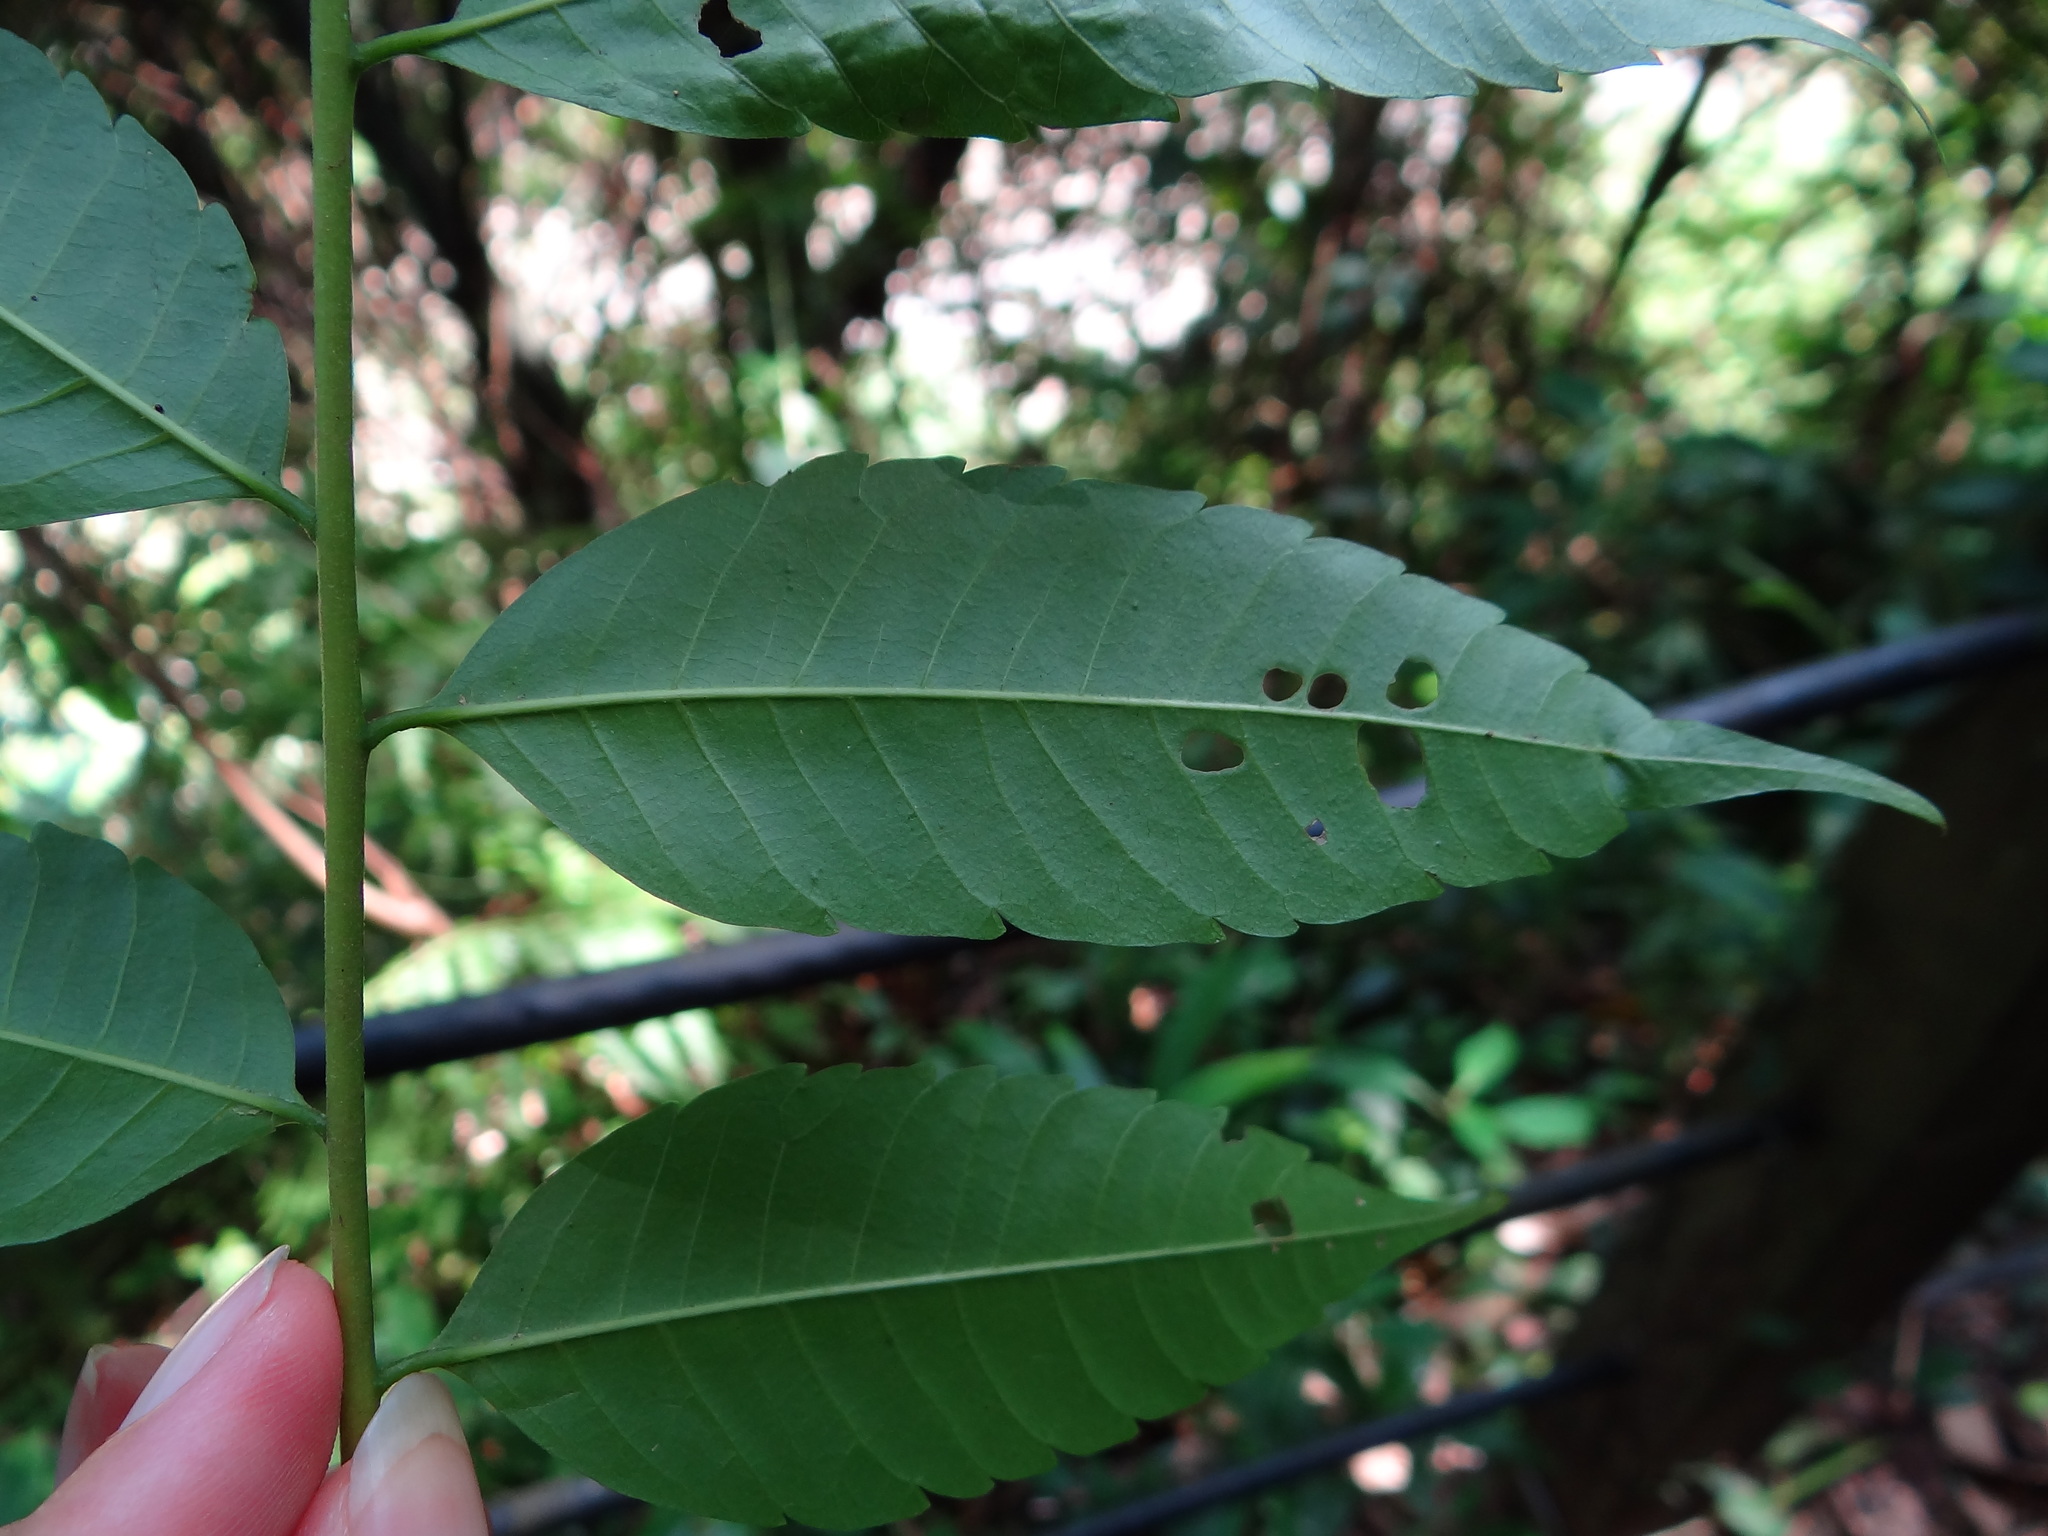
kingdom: Plantae
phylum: Tracheophyta
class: Magnoliopsida
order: Sapindales
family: Sapindaceae
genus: Eurycorymbus
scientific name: Eurycorymbus cavaleriei
